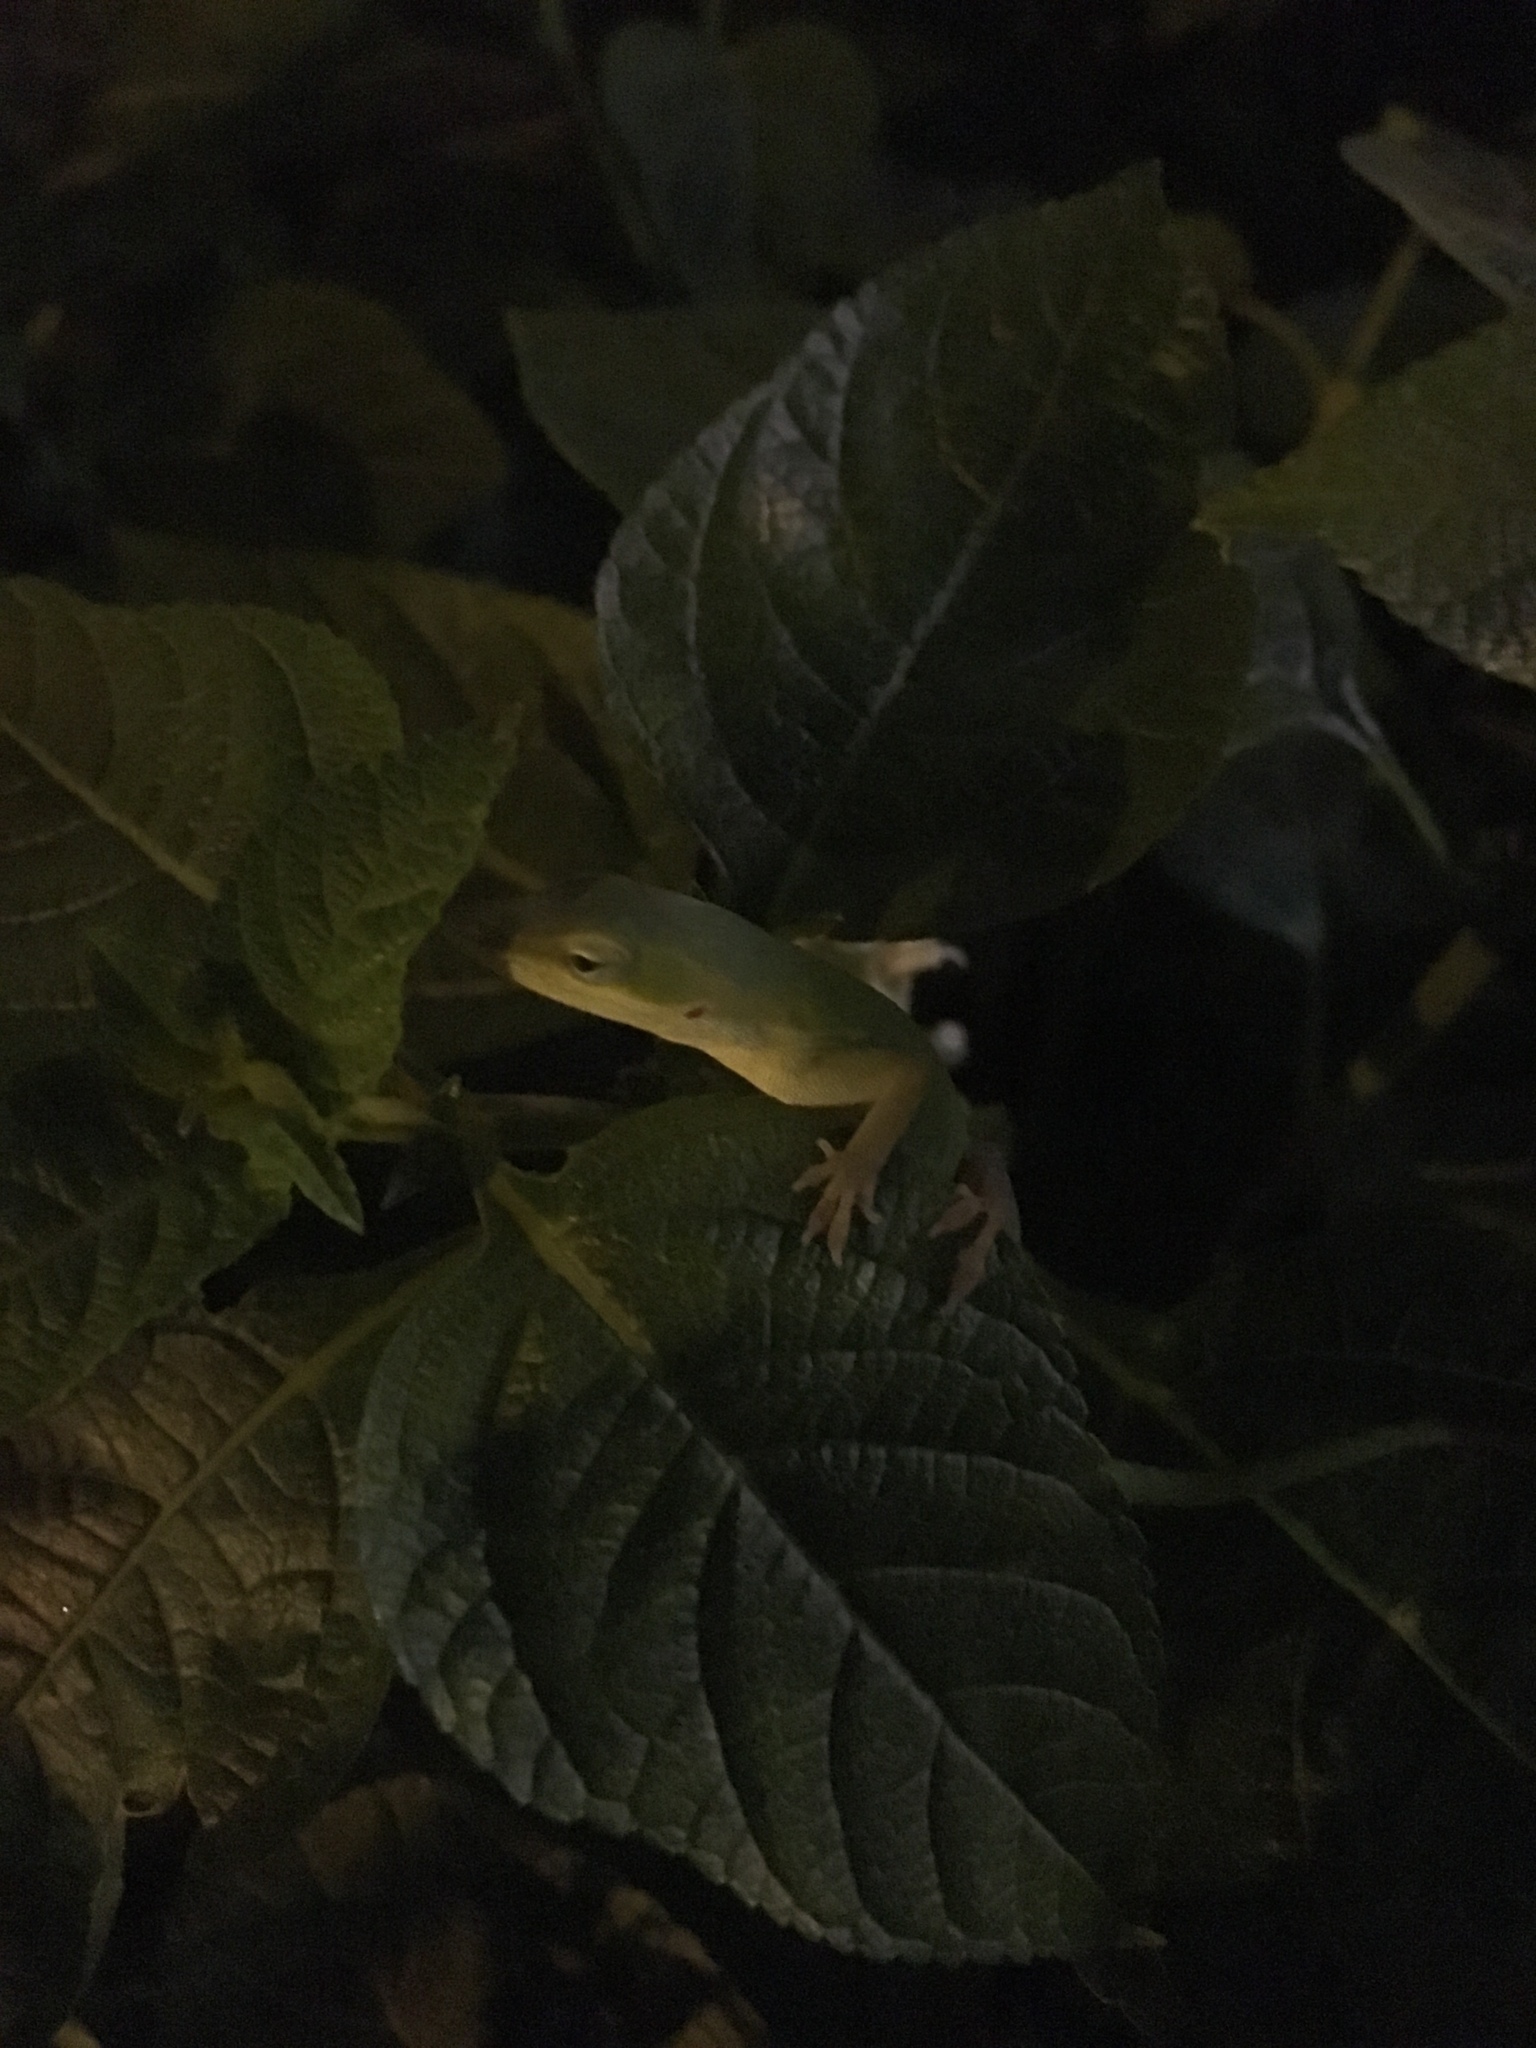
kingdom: Animalia
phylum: Chordata
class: Squamata
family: Dactyloidae
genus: Anolis
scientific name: Anolis carolinensis
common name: Green anole
